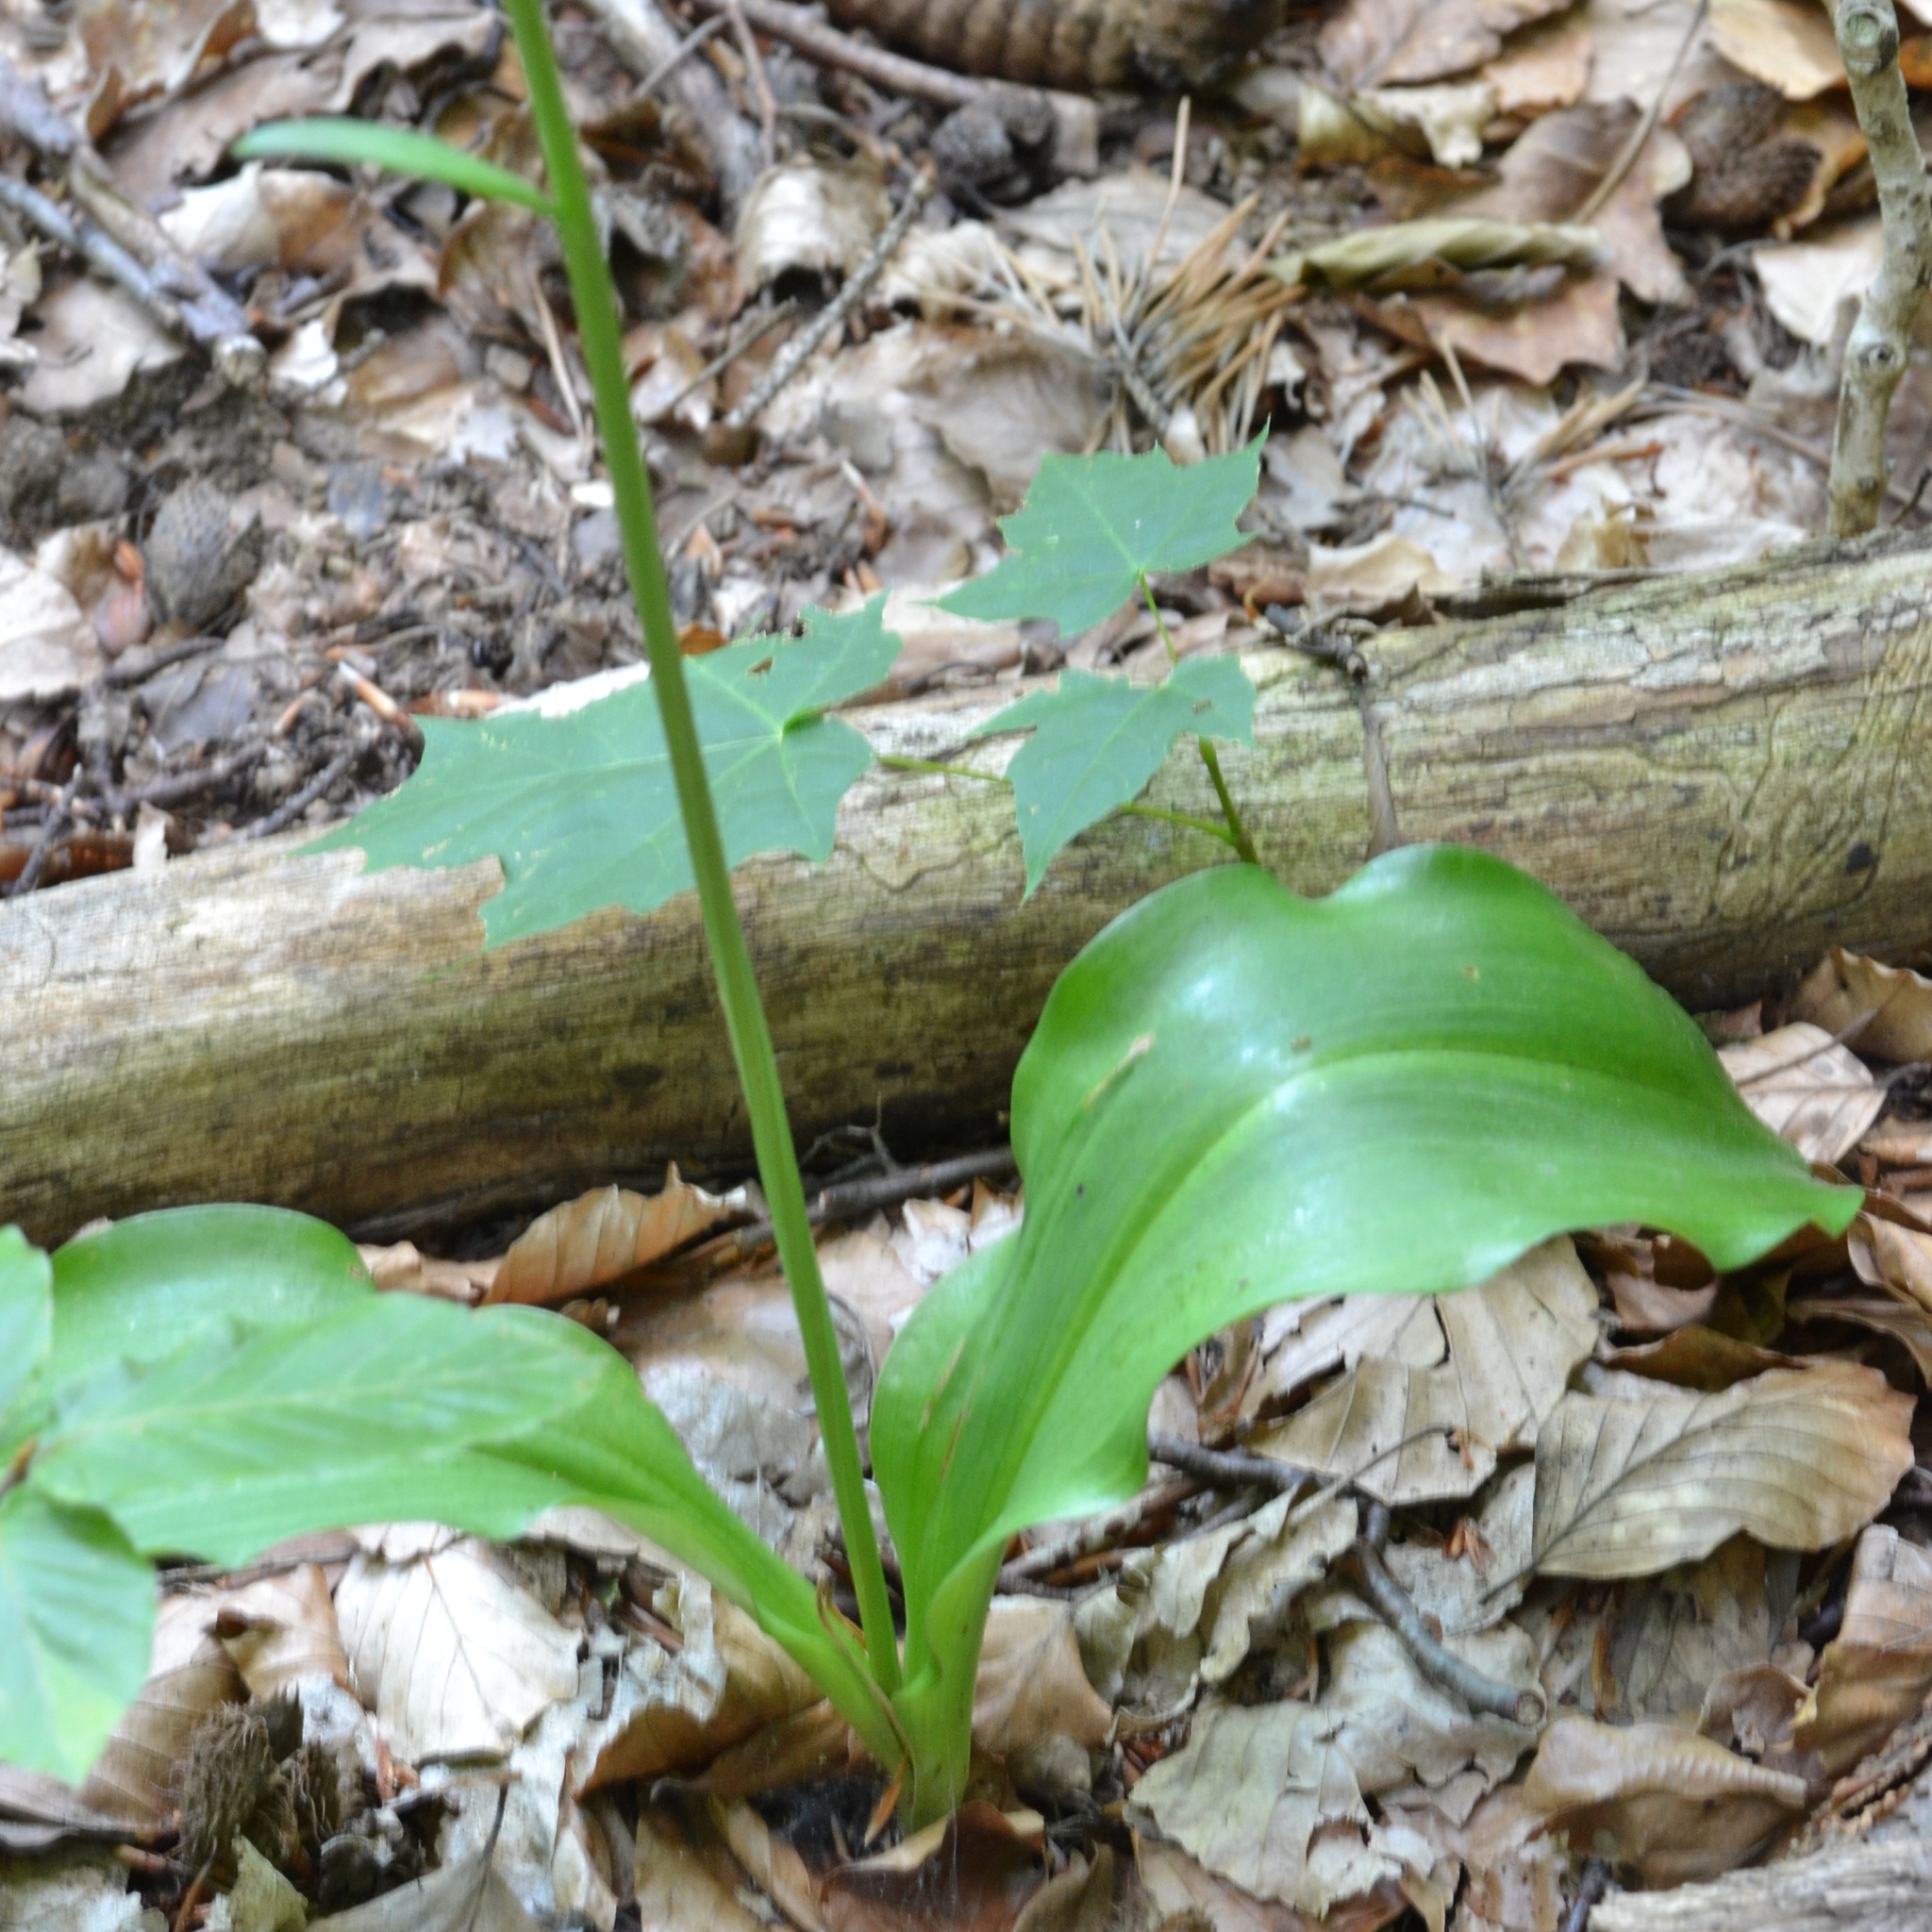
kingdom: Plantae
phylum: Tracheophyta
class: Liliopsida
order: Asparagales
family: Orchidaceae
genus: Platanthera
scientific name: Platanthera bifolia
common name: Lesser butterfly-orchid
